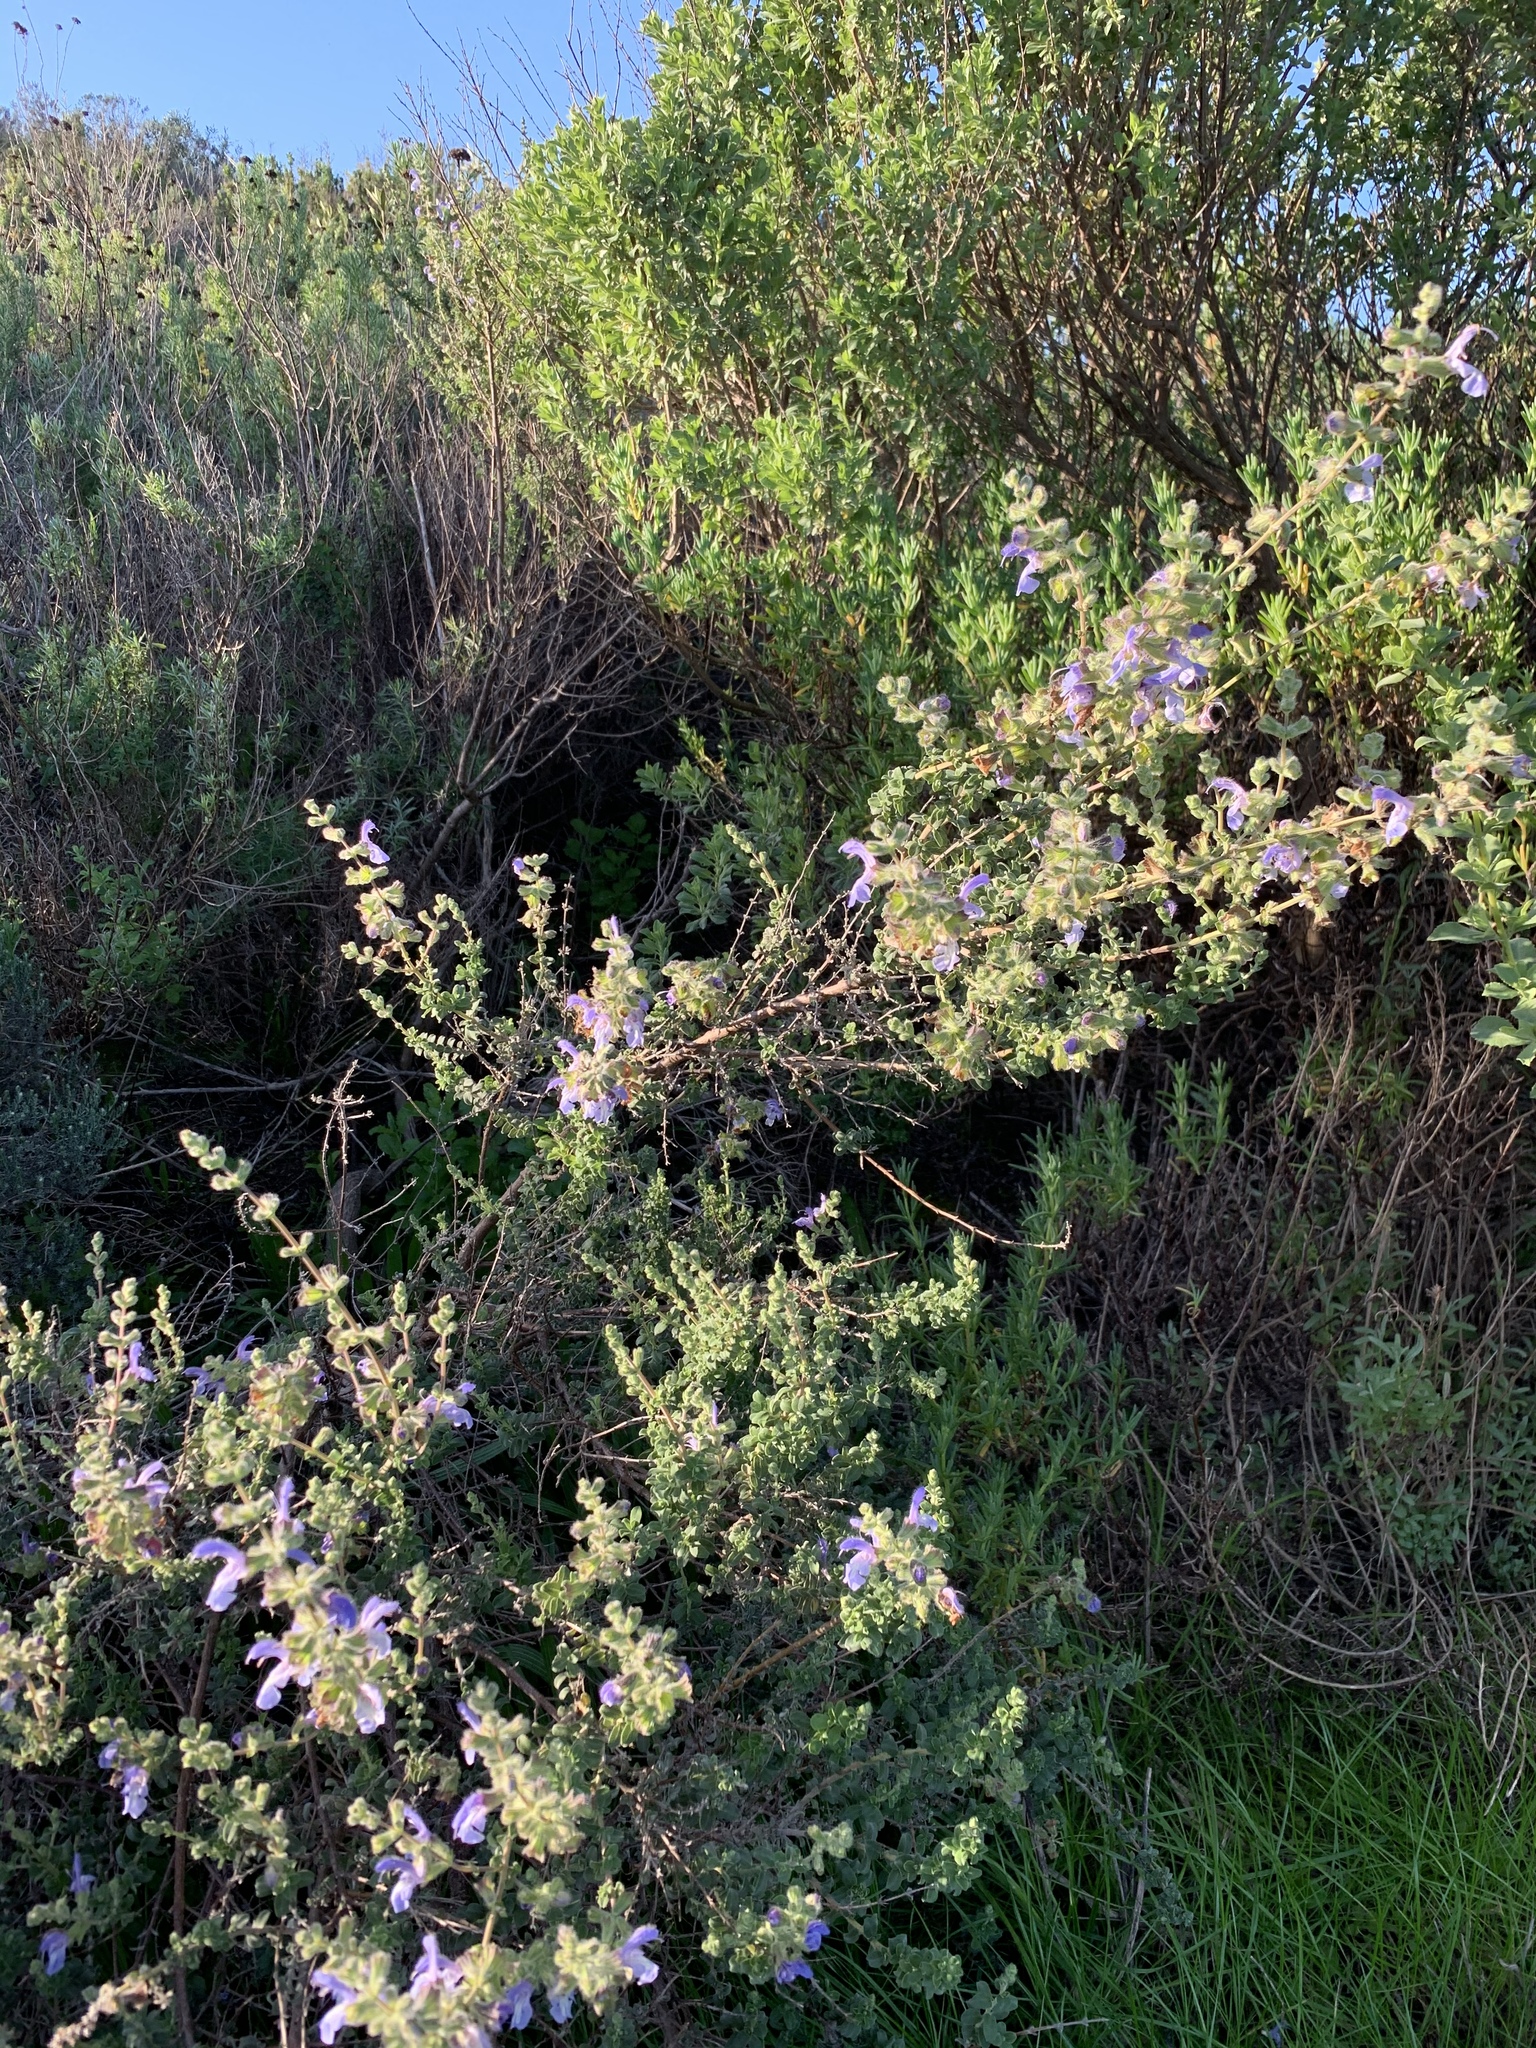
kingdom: Plantae
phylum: Tracheophyta
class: Magnoliopsida
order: Lamiales
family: Lamiaceae
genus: Salvia
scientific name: Salvia africana
